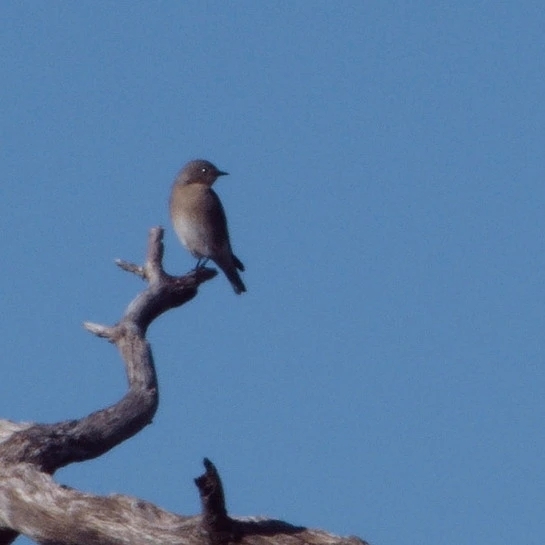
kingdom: Animalia
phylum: Chordata
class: Aves
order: Passeriformes
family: Turdidae
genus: Sialia
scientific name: Sialia sialis
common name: Eastern bluebird
